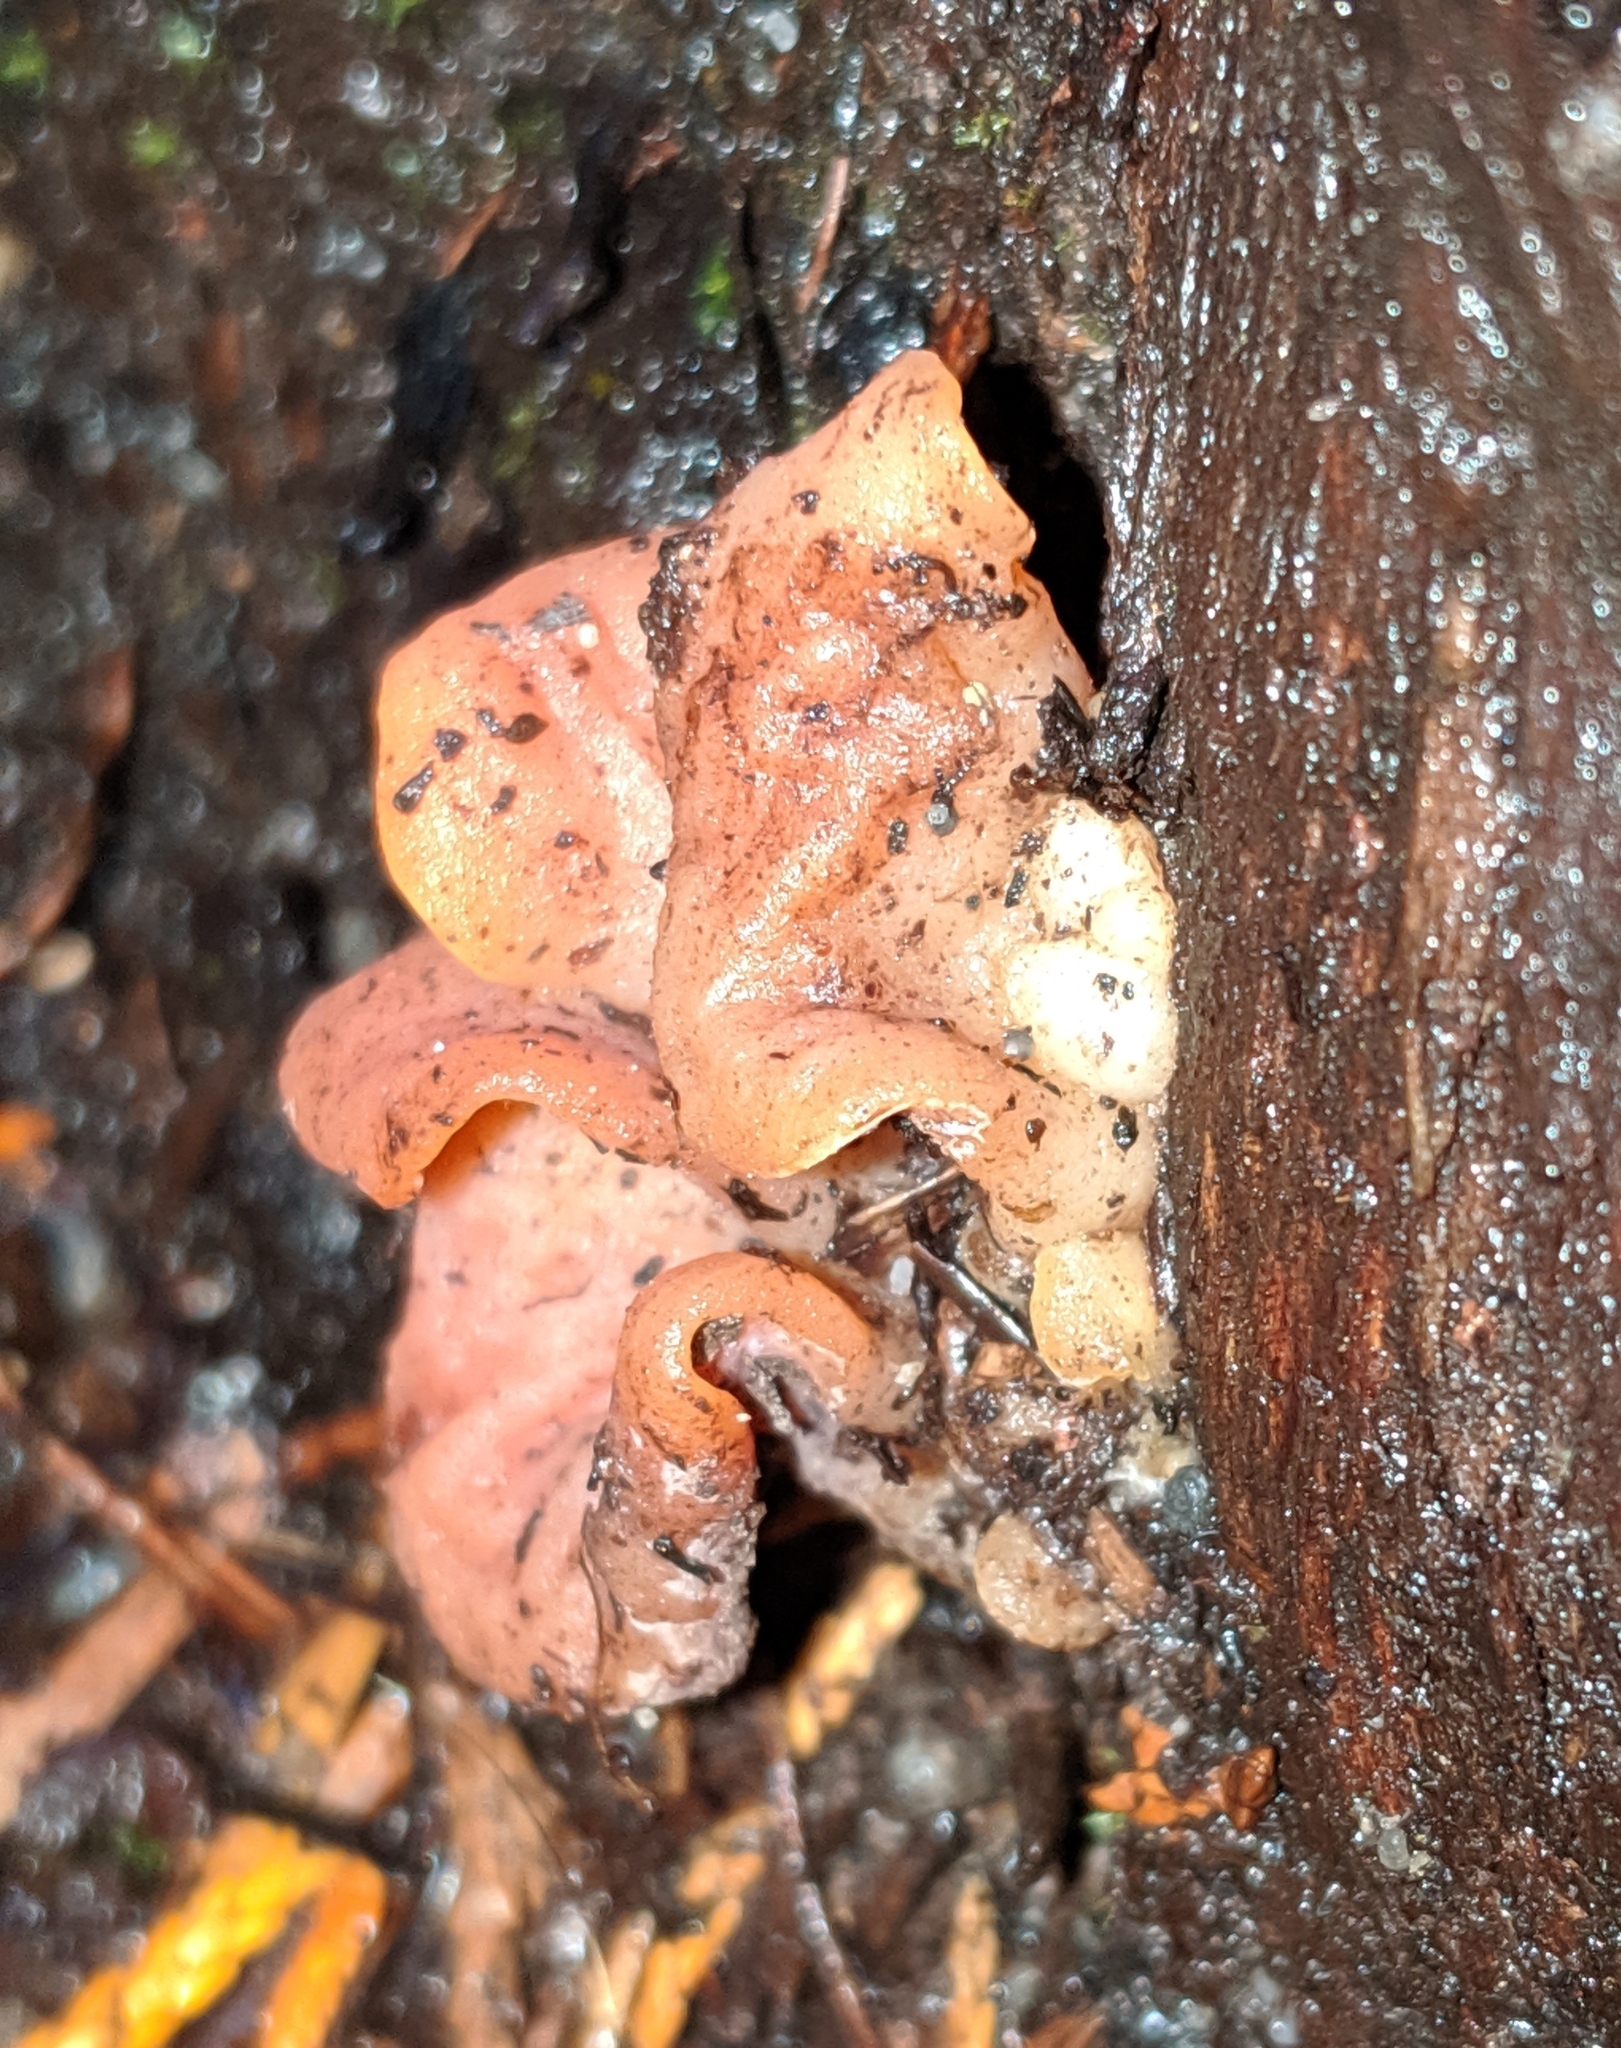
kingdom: Fungi
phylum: Basidiomycota
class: Agaricomycetes
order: Auriculariales
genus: Guepinia
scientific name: Guepinia helvelloides
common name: Salmon salad
